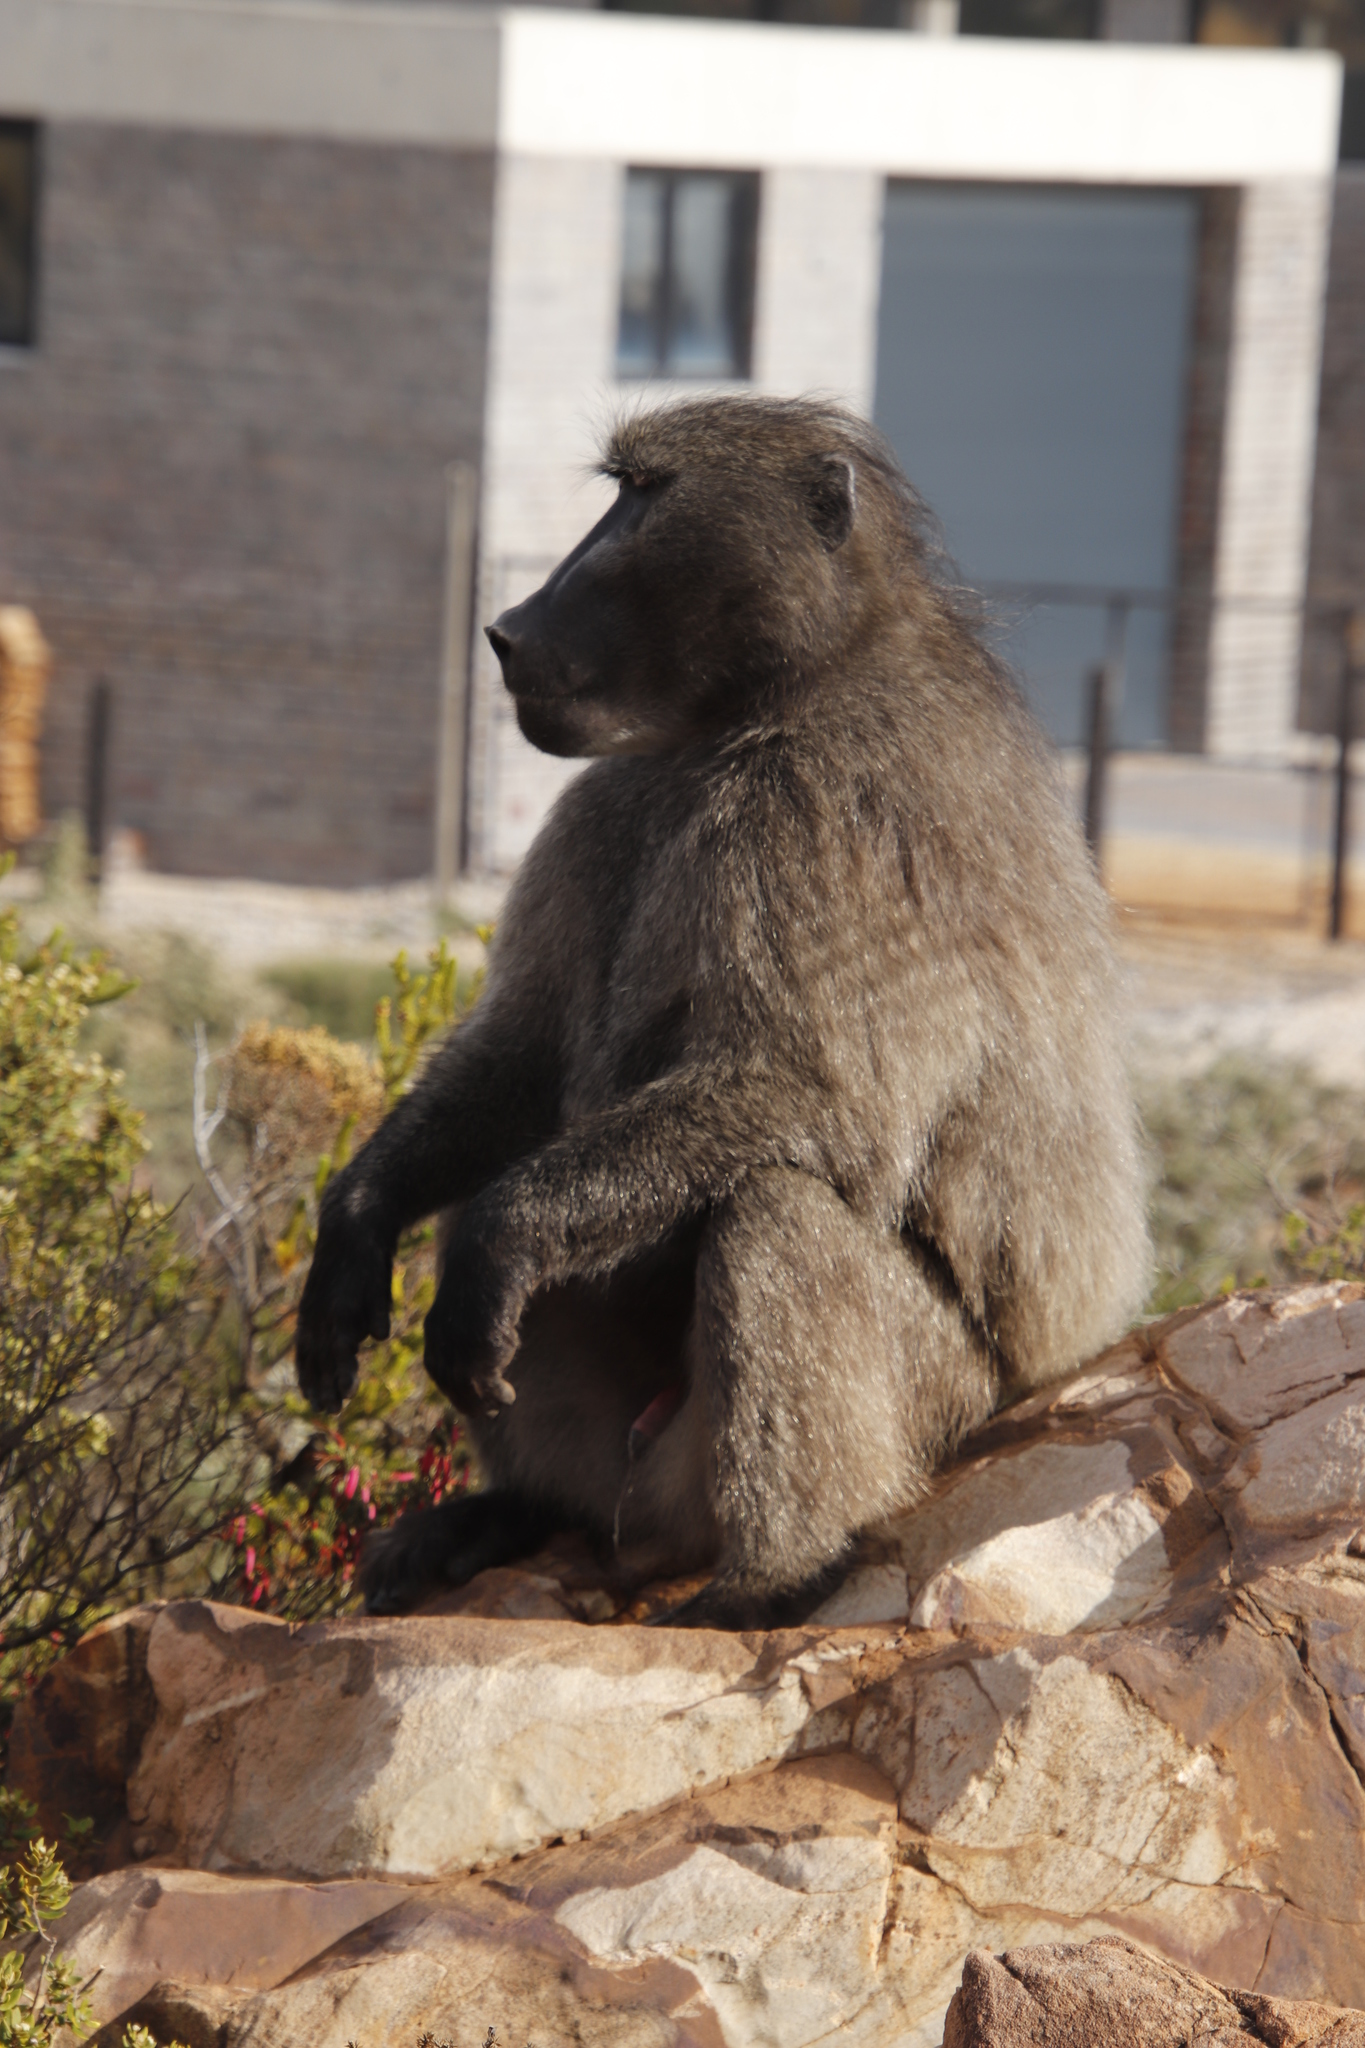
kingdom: Animalia
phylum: Chordata
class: Mammalia
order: Primates
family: Cercopithecidae
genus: Papio
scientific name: Papio ursinus
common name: Chacma baboon
